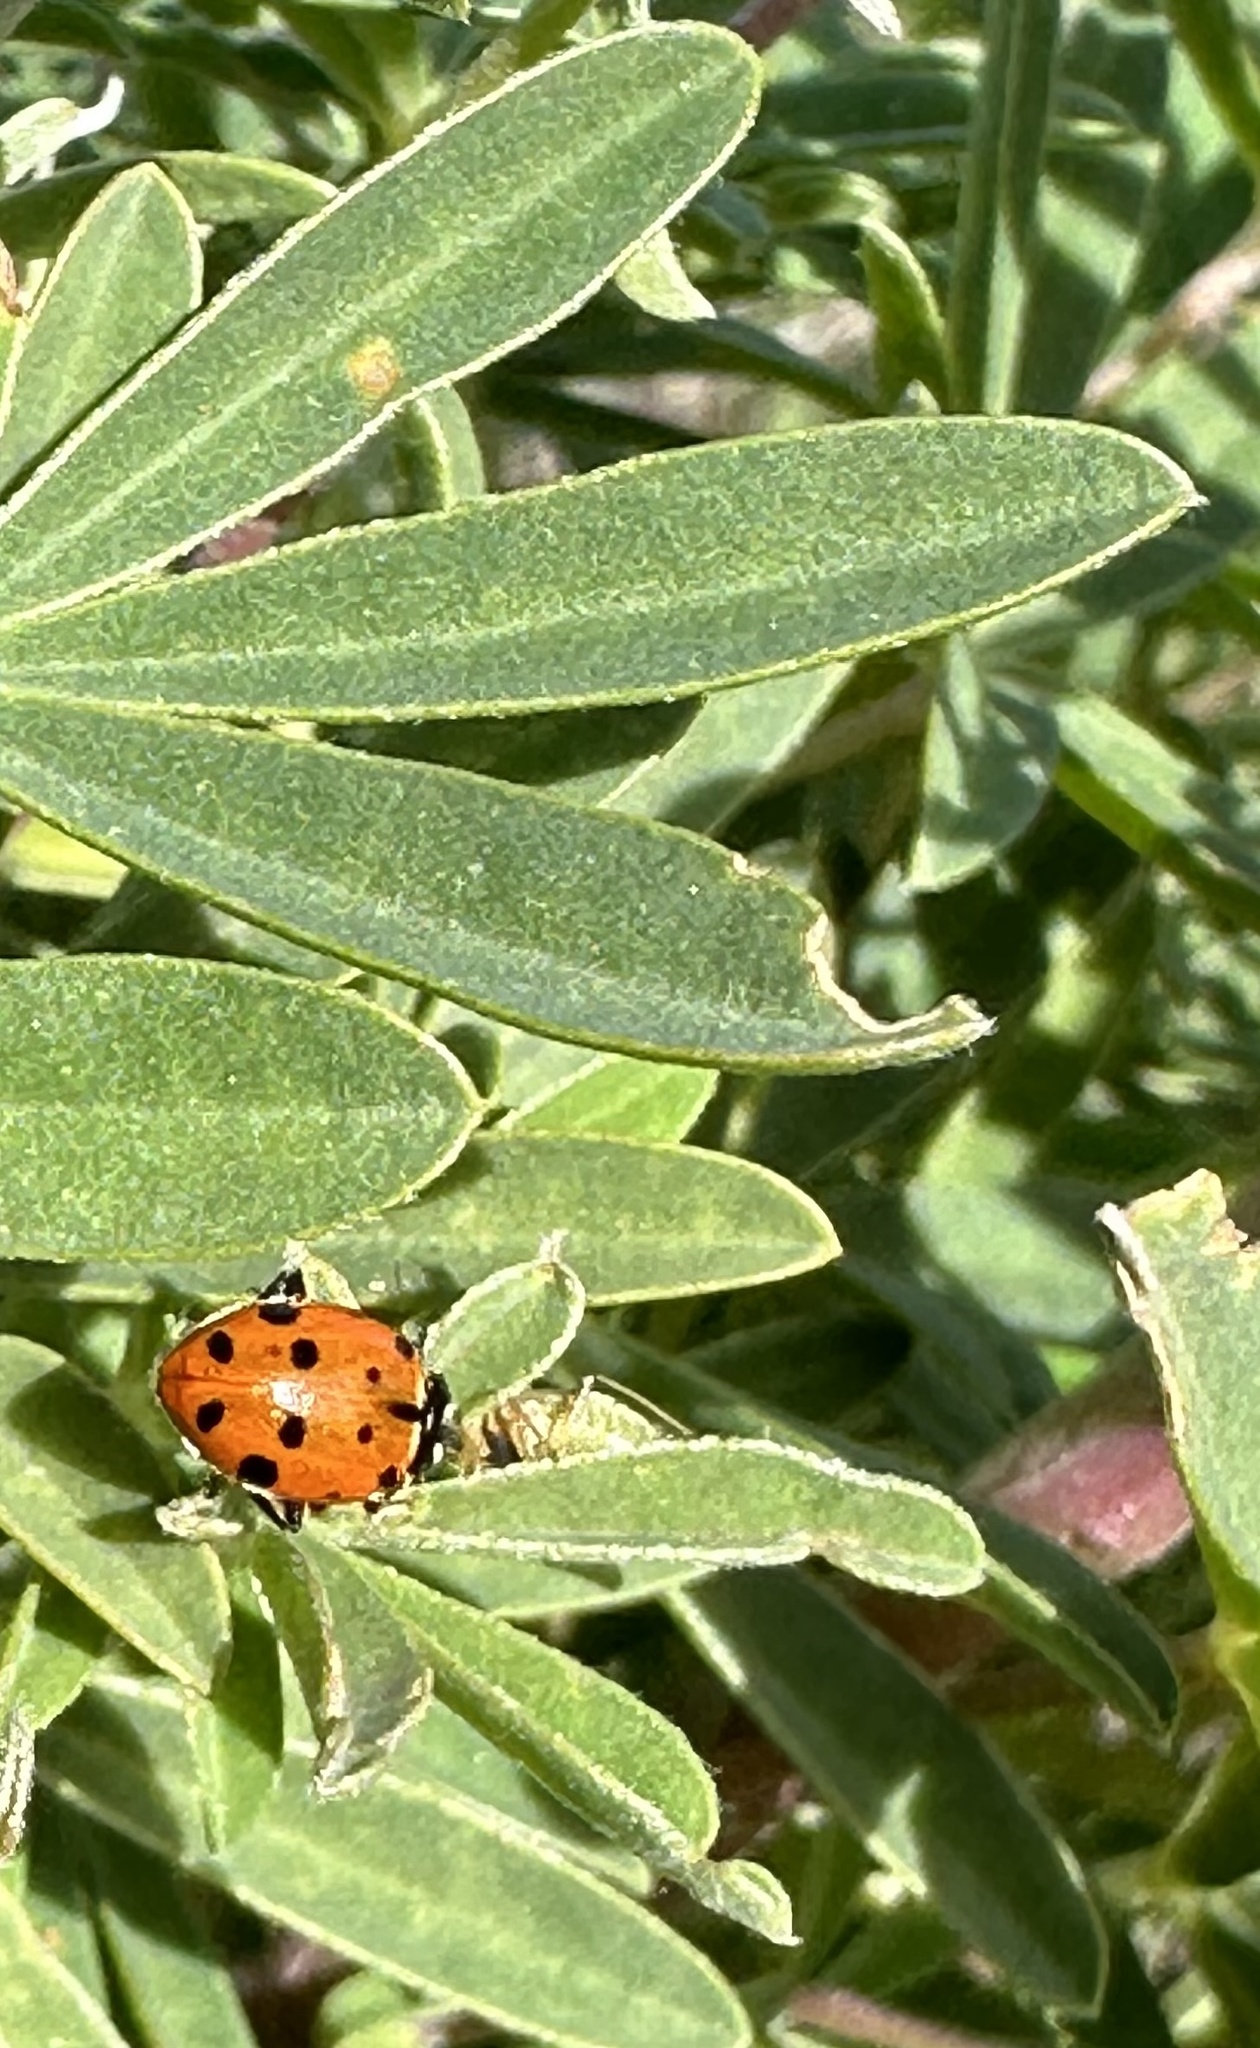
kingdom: Animalia
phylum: Arthropoda
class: Insecta
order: Coleoptera
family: Coccinellidae
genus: Hippodamia
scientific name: Hippodamia convergens
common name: Convergent lady beetle
